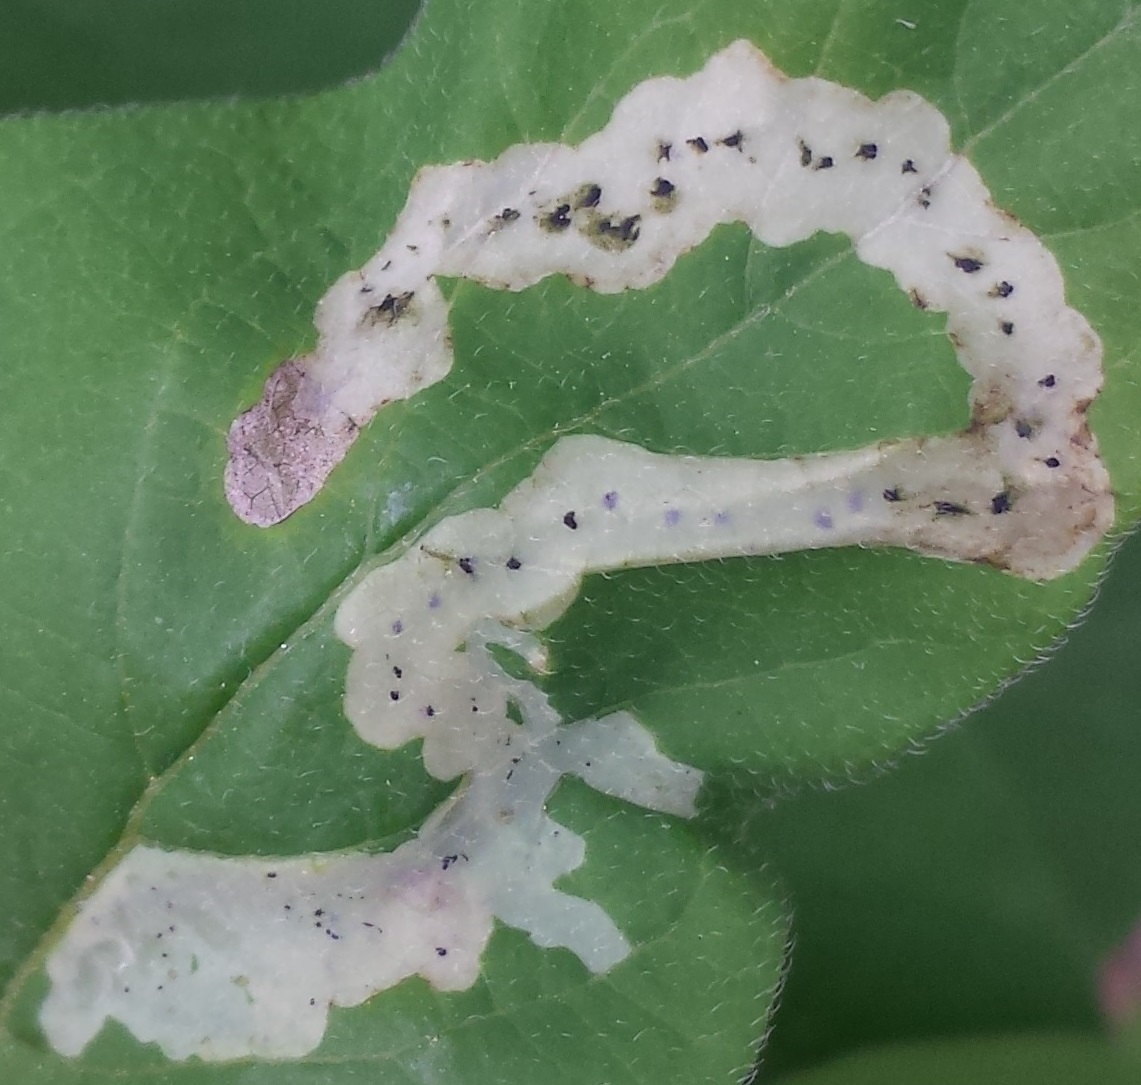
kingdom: Animalia
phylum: Arthropoda
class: Insecta
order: Diptera
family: Agromyzidae
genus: Aulagromyza
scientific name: Aulagromyza cornigera
